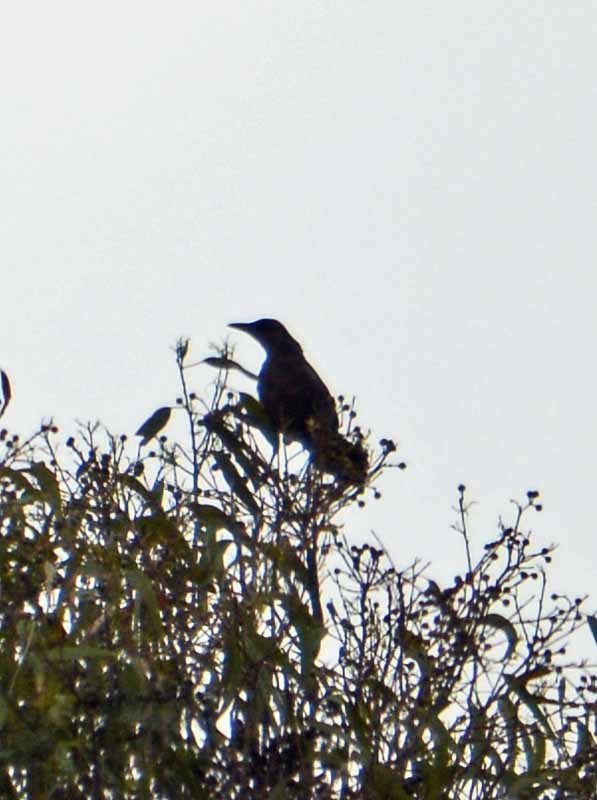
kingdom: Animalia
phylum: Chordata
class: Aves
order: Passeriformes
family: Icteridae
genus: Quiscalus
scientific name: Quiscalus mexicanus
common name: Great-tailed grackle
